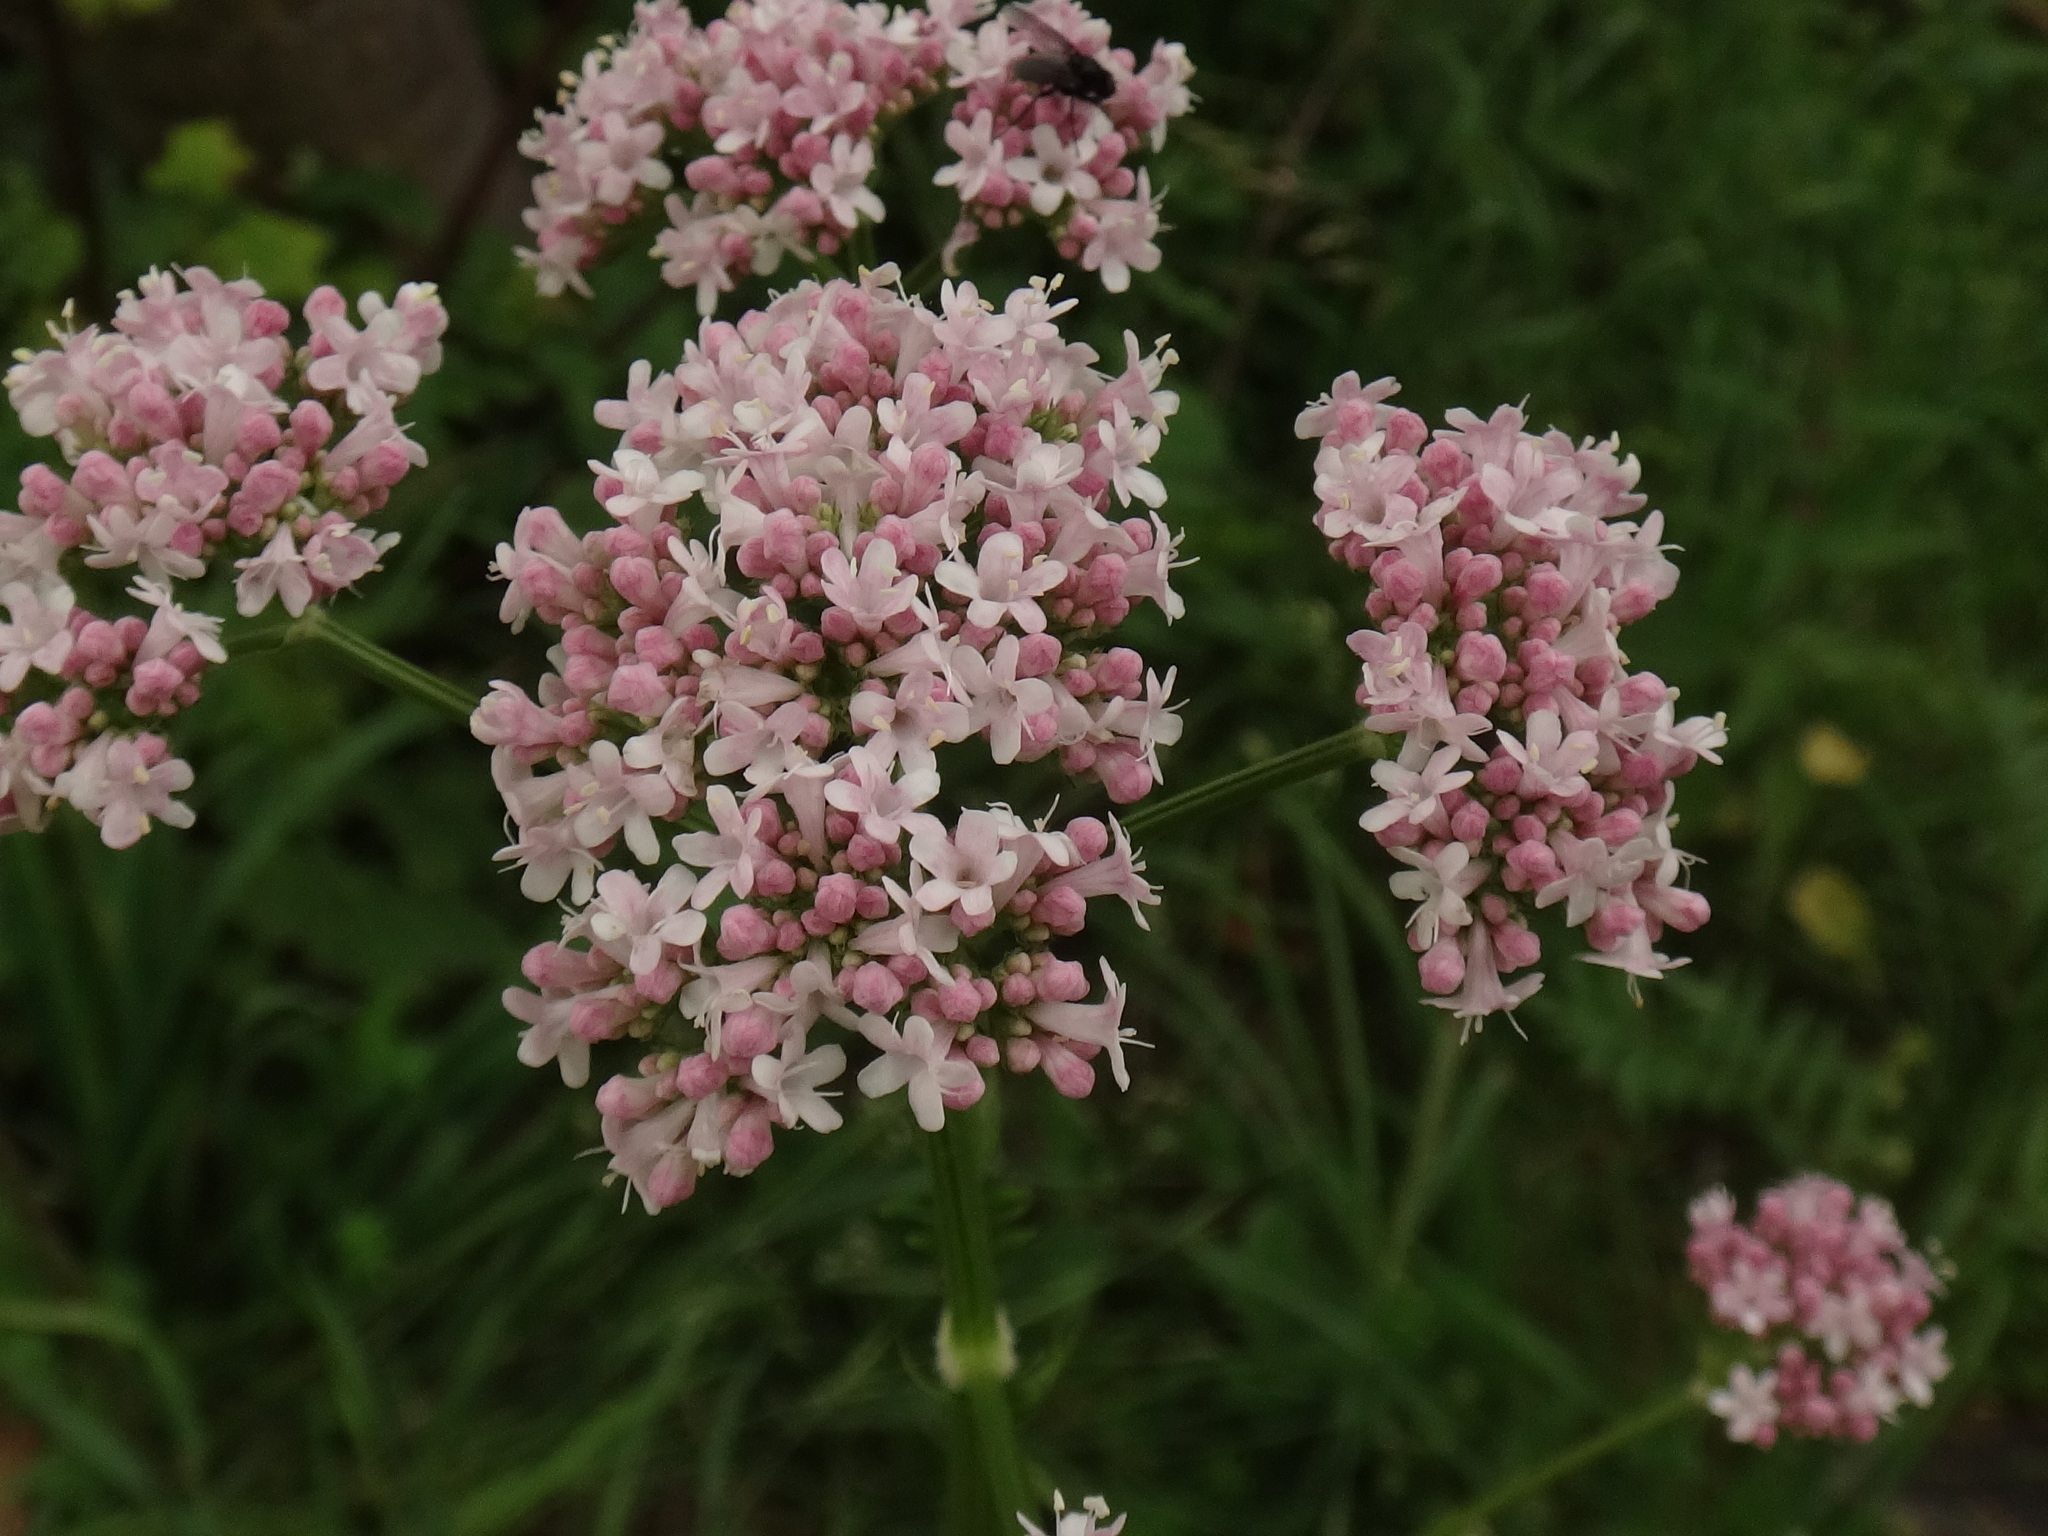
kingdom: Plantae
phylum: Tracheophyta
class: Magnoliopsida
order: Dipsacales
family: Caprifoliaceae
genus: Valeriana
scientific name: Valeriana dioica
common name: Marsh valerian
